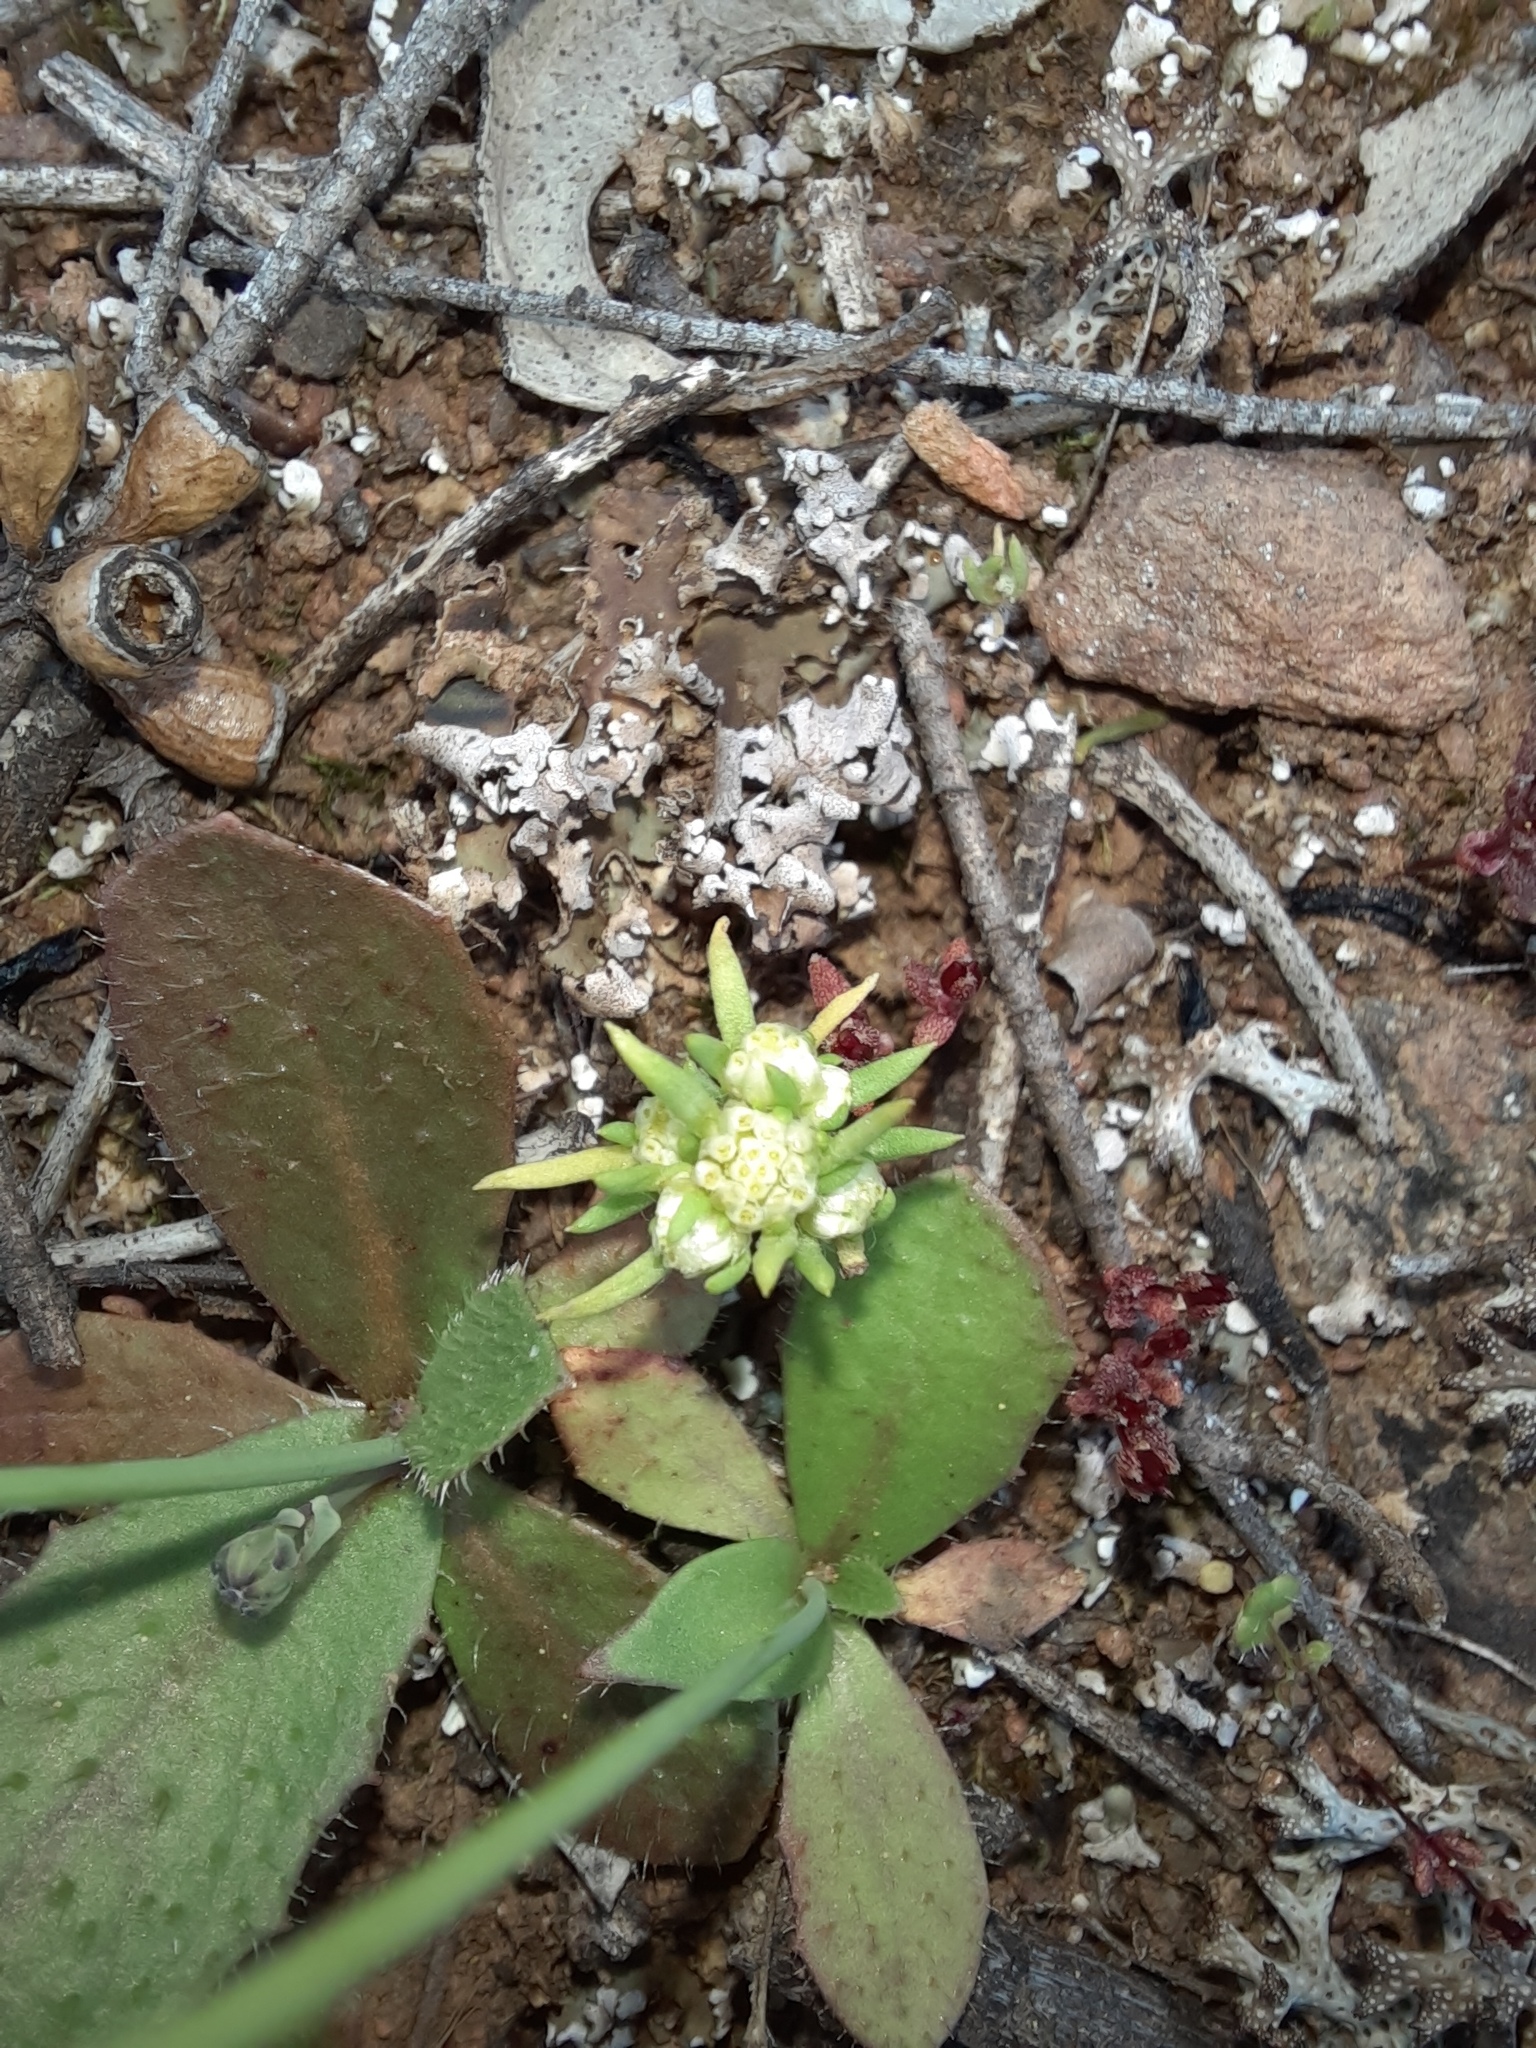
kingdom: Plantae
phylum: Tracheophyta
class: Magnoliopsida
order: Asterales
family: Asteraceae
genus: Siloxerus
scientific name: Siloxerus multiflorus
